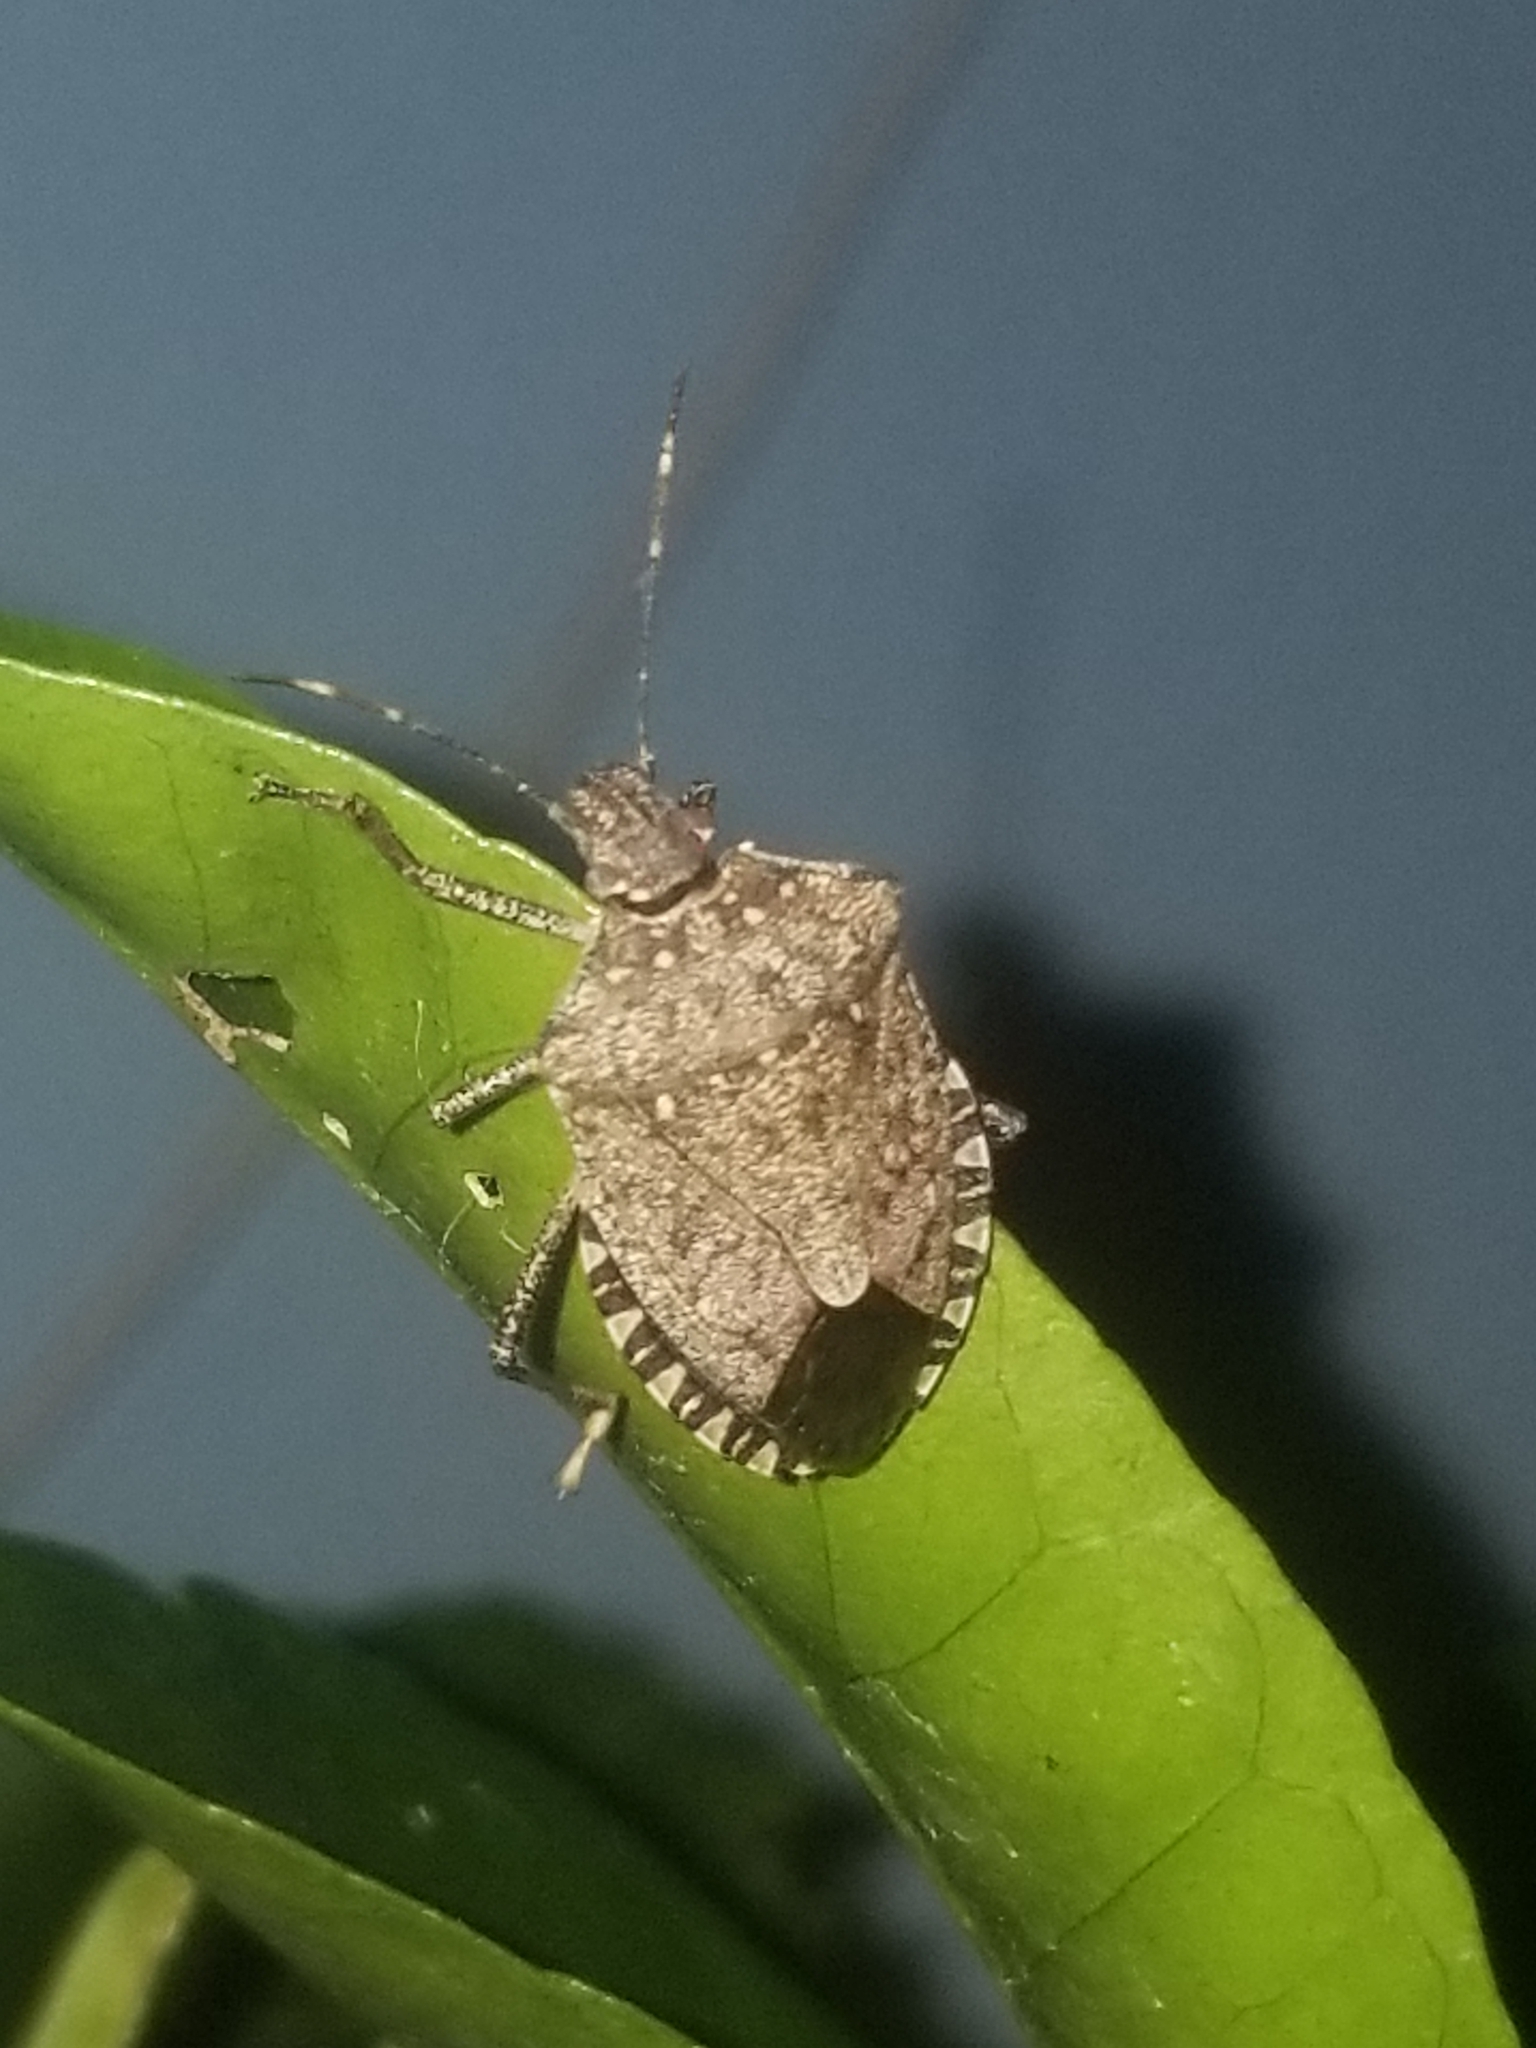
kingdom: Animalia
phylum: Arthropoda
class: Insecta
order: Hemiptera
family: Pentatomidae
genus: Halyomorpha
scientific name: Halyomorpha halys
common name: Brown marmorated stink bug
